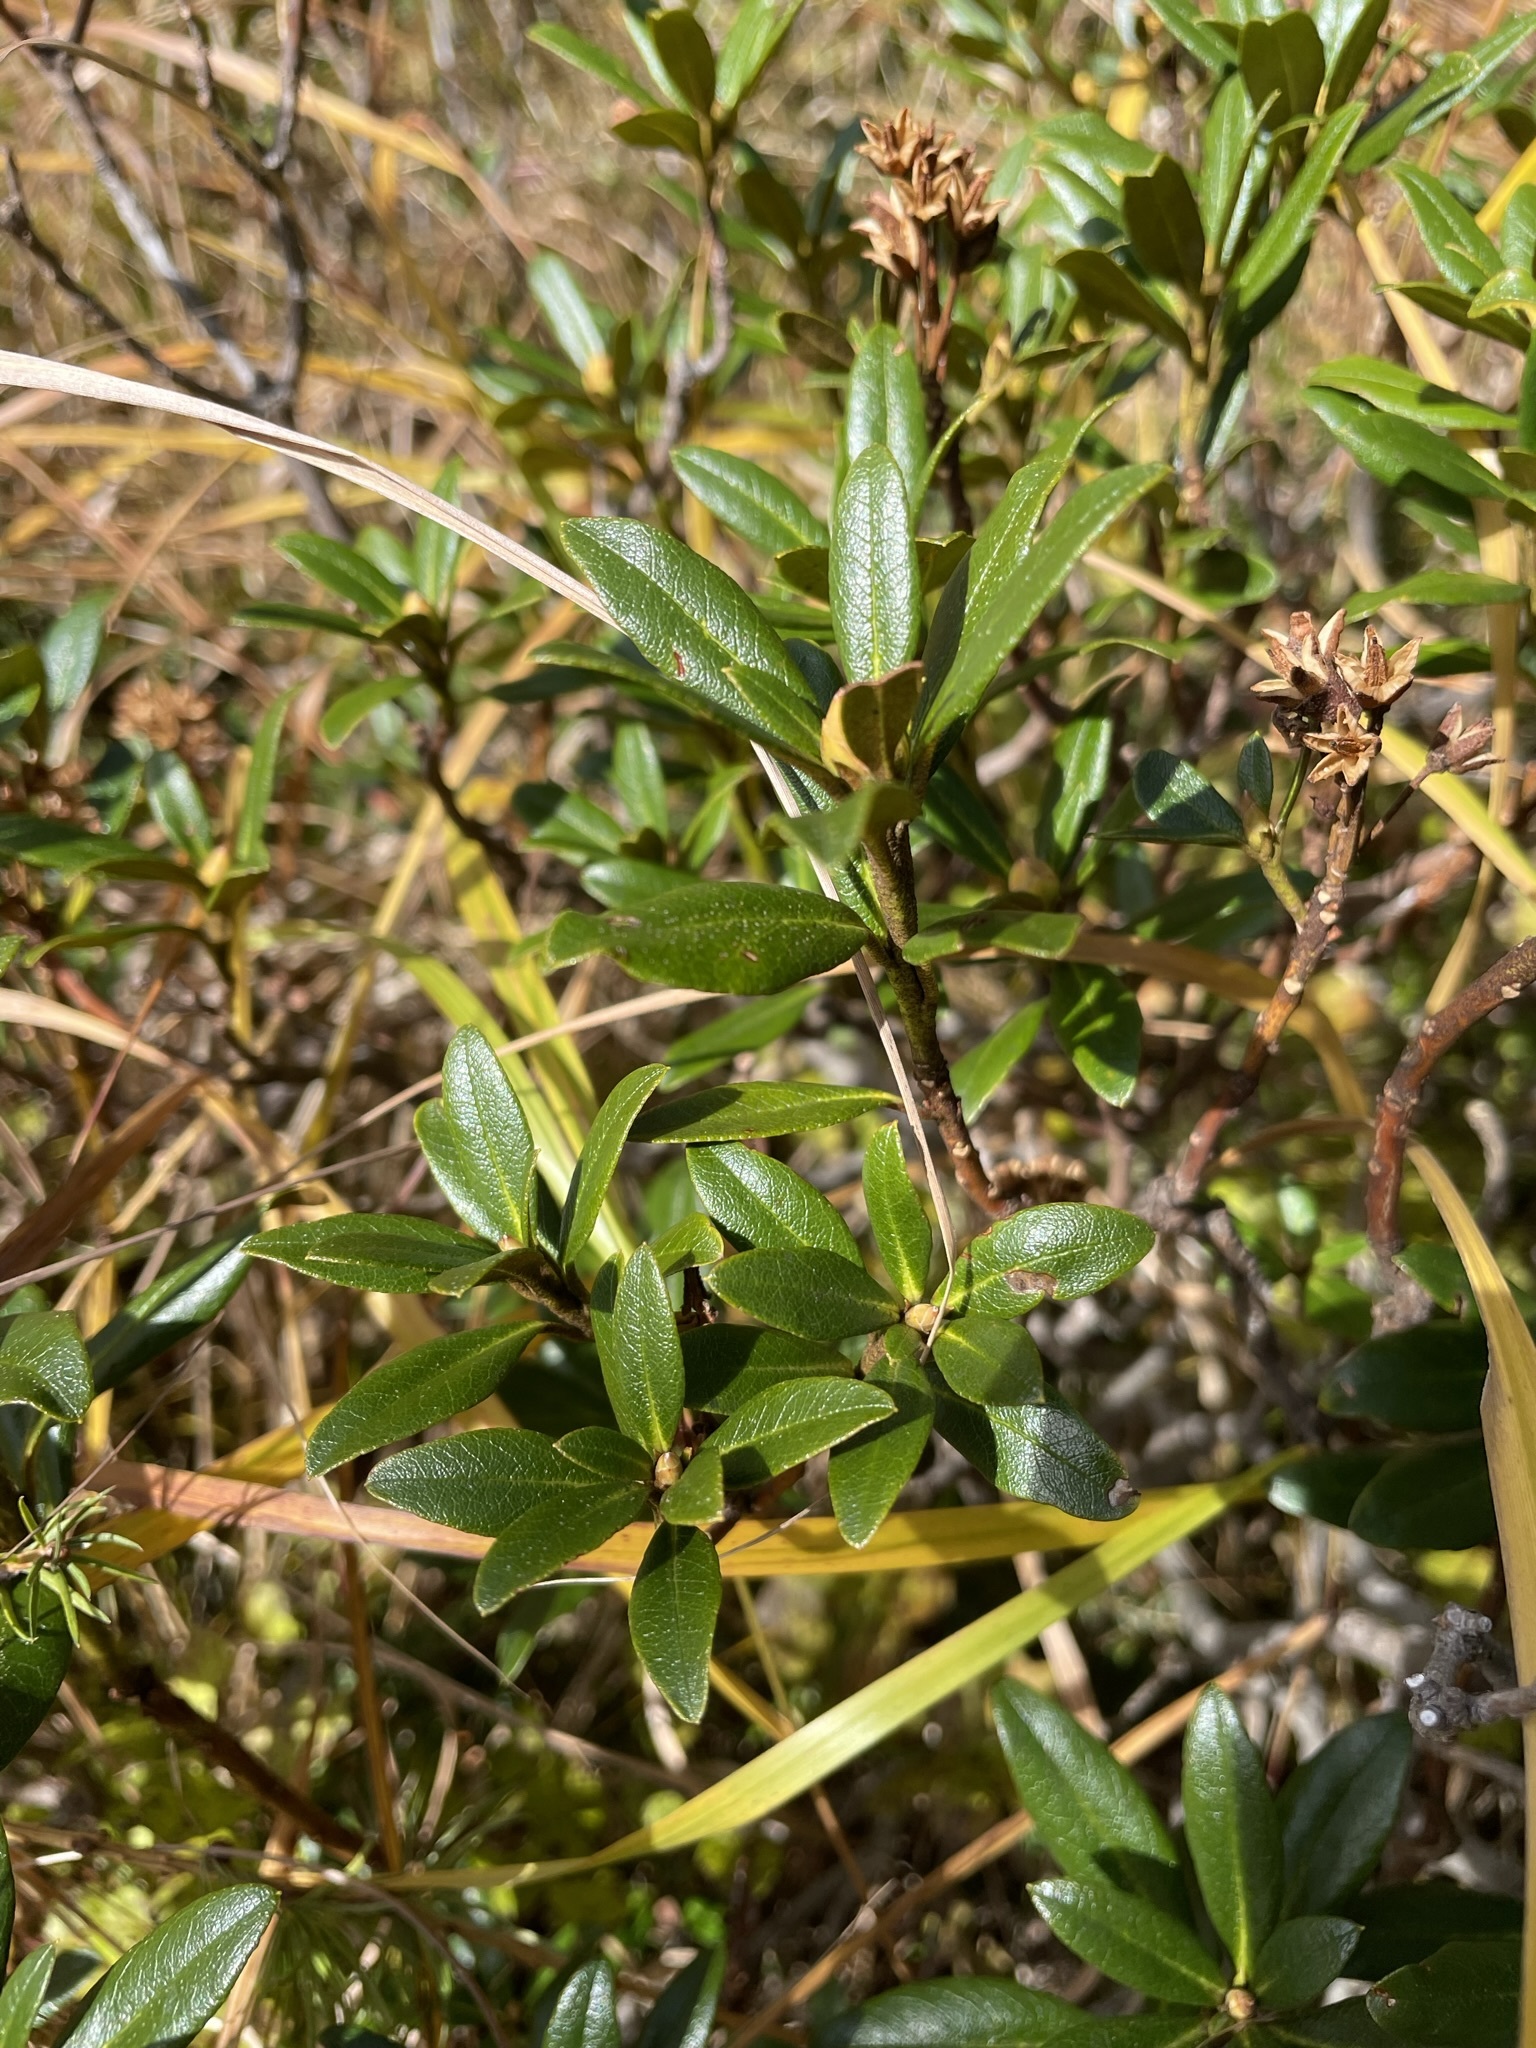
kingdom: Plantae
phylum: Tracheophyta
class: Magnoliopsida
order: Ericales
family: Ericaceae
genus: Rhododendron
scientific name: Rhododendron ferrugineum
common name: Alpenrose
